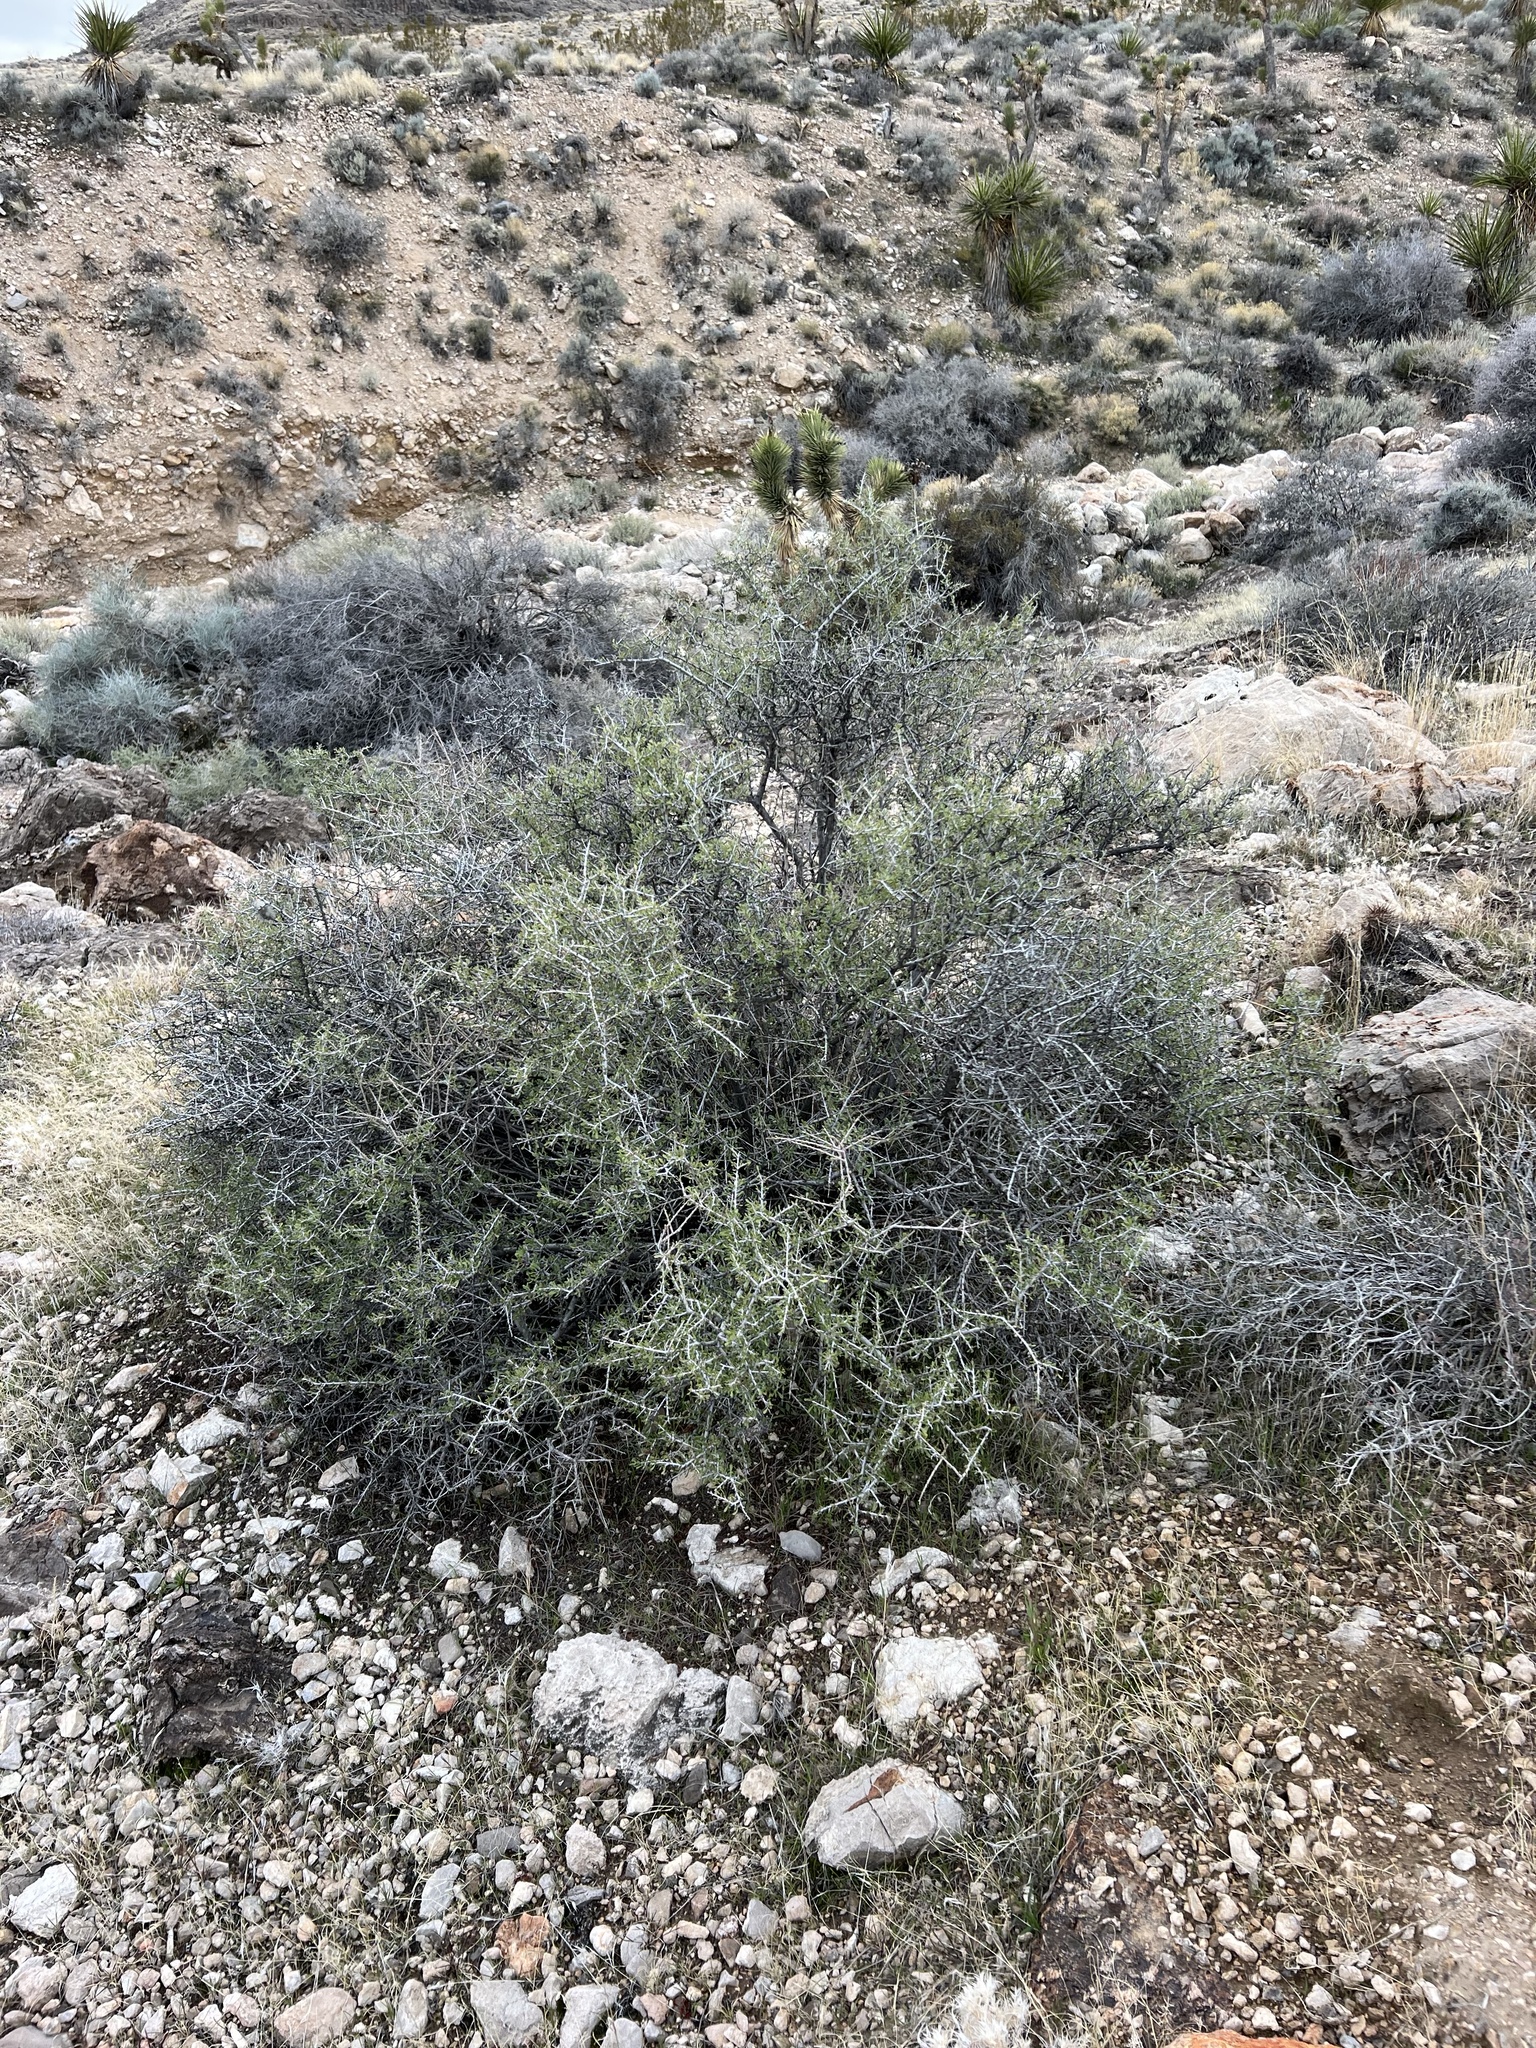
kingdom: Plantae
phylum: Tracheophyta
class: Magnoliopsida
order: Rosales
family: Rosaceae
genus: Prunus
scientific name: Prunus fasciculata
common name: Desert almond
